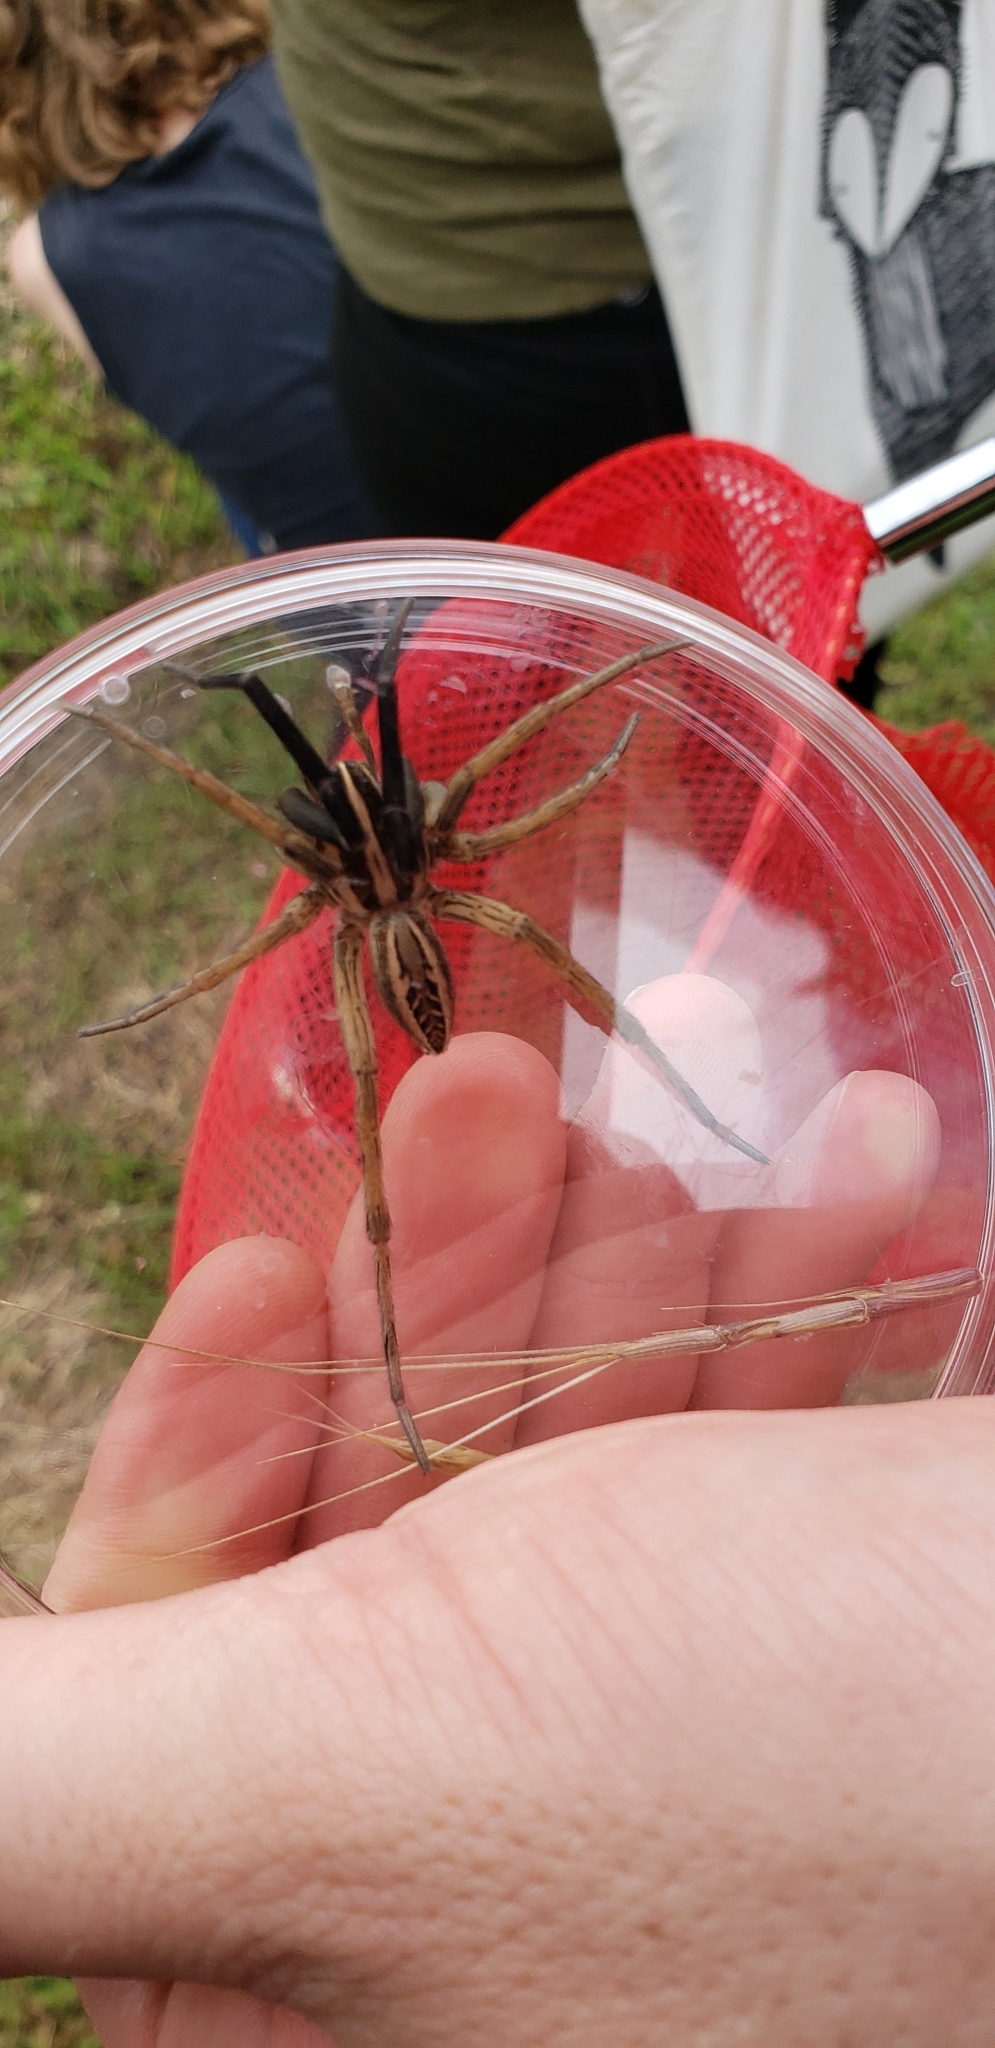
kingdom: Animalia
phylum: Arthropoda
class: Arachnida
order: Araneae
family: Lycosidae
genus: Rabidosa
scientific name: Rabidosa rabida
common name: Rabid wolf spider
